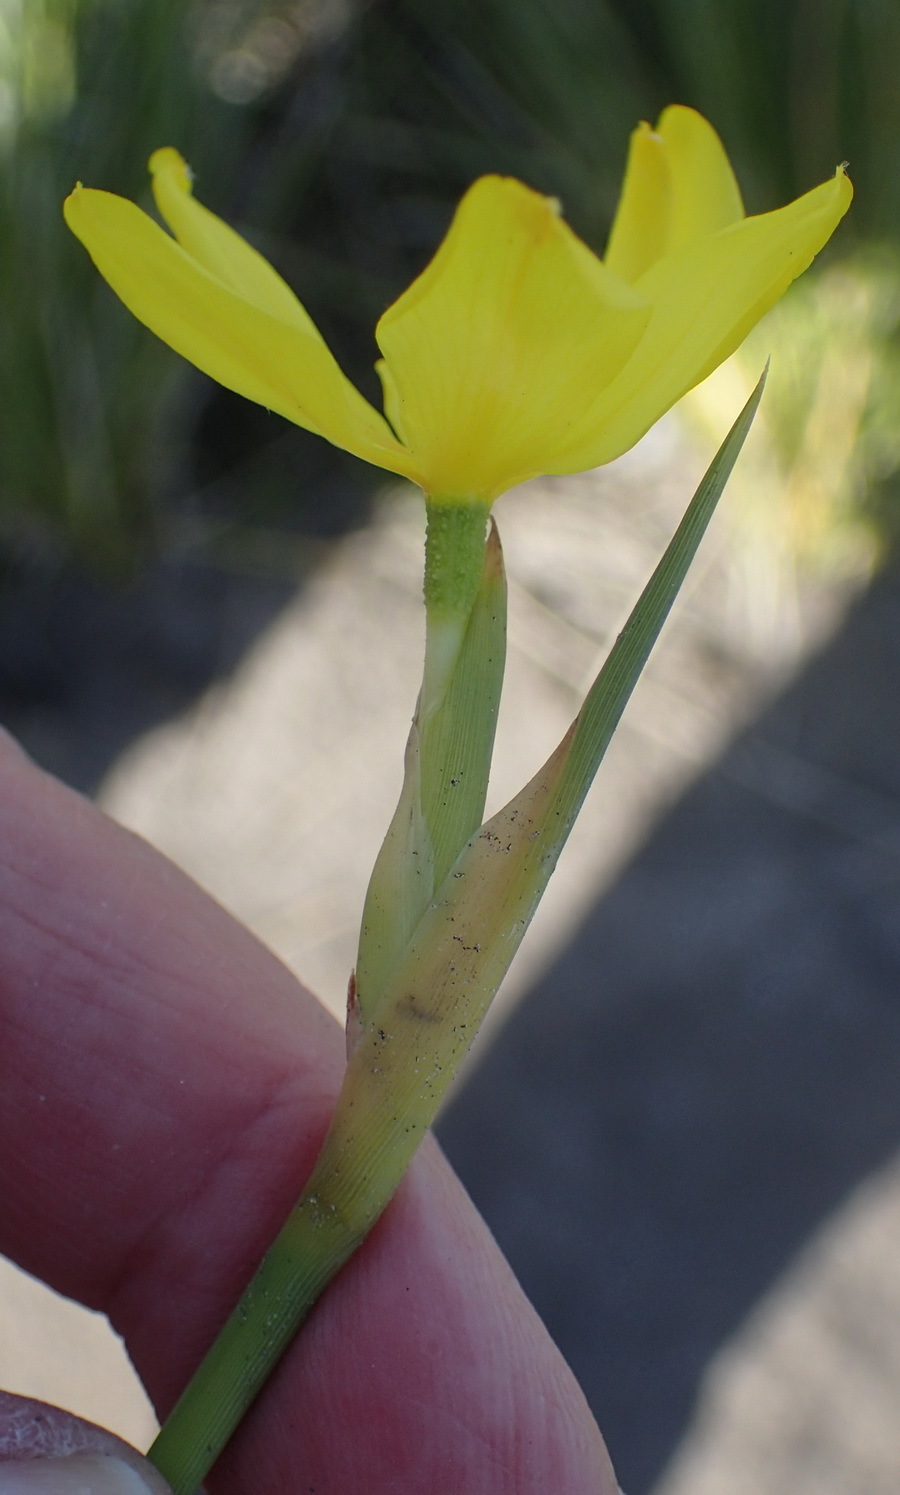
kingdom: Plantae
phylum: Tracheophyta
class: Liliopsida
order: Asparagales
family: Iridaceae
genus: Bobartia
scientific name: Bobartia aphylla
